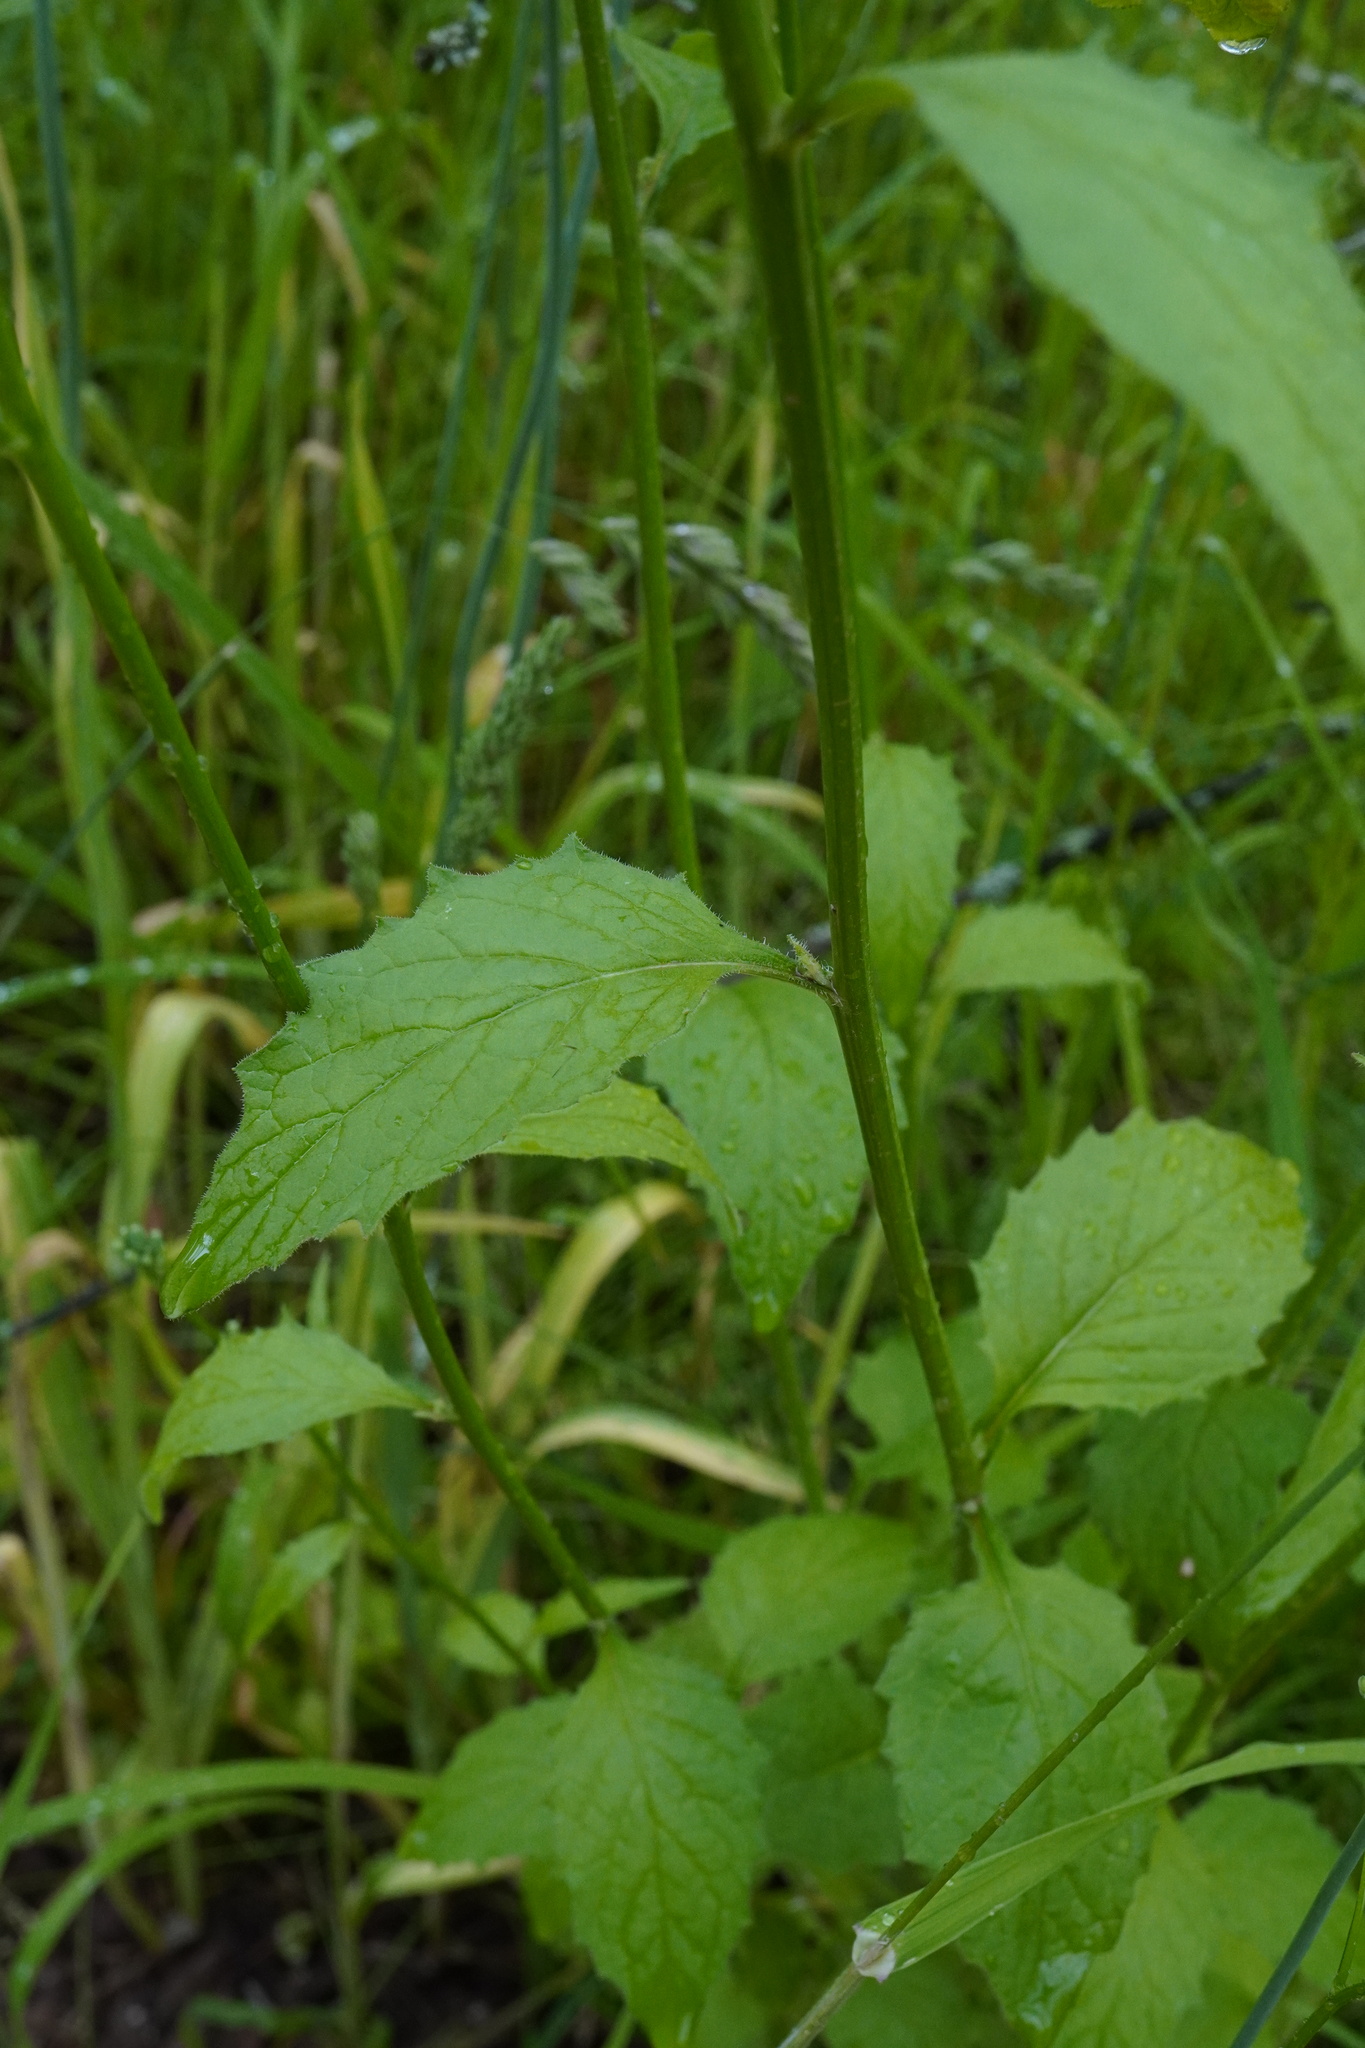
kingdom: Plantae
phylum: Tracheophyta
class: Magnoliopsida
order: Asterales
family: Asteraceae
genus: Lapsana
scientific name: Lapsana communis
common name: Nipplewort
